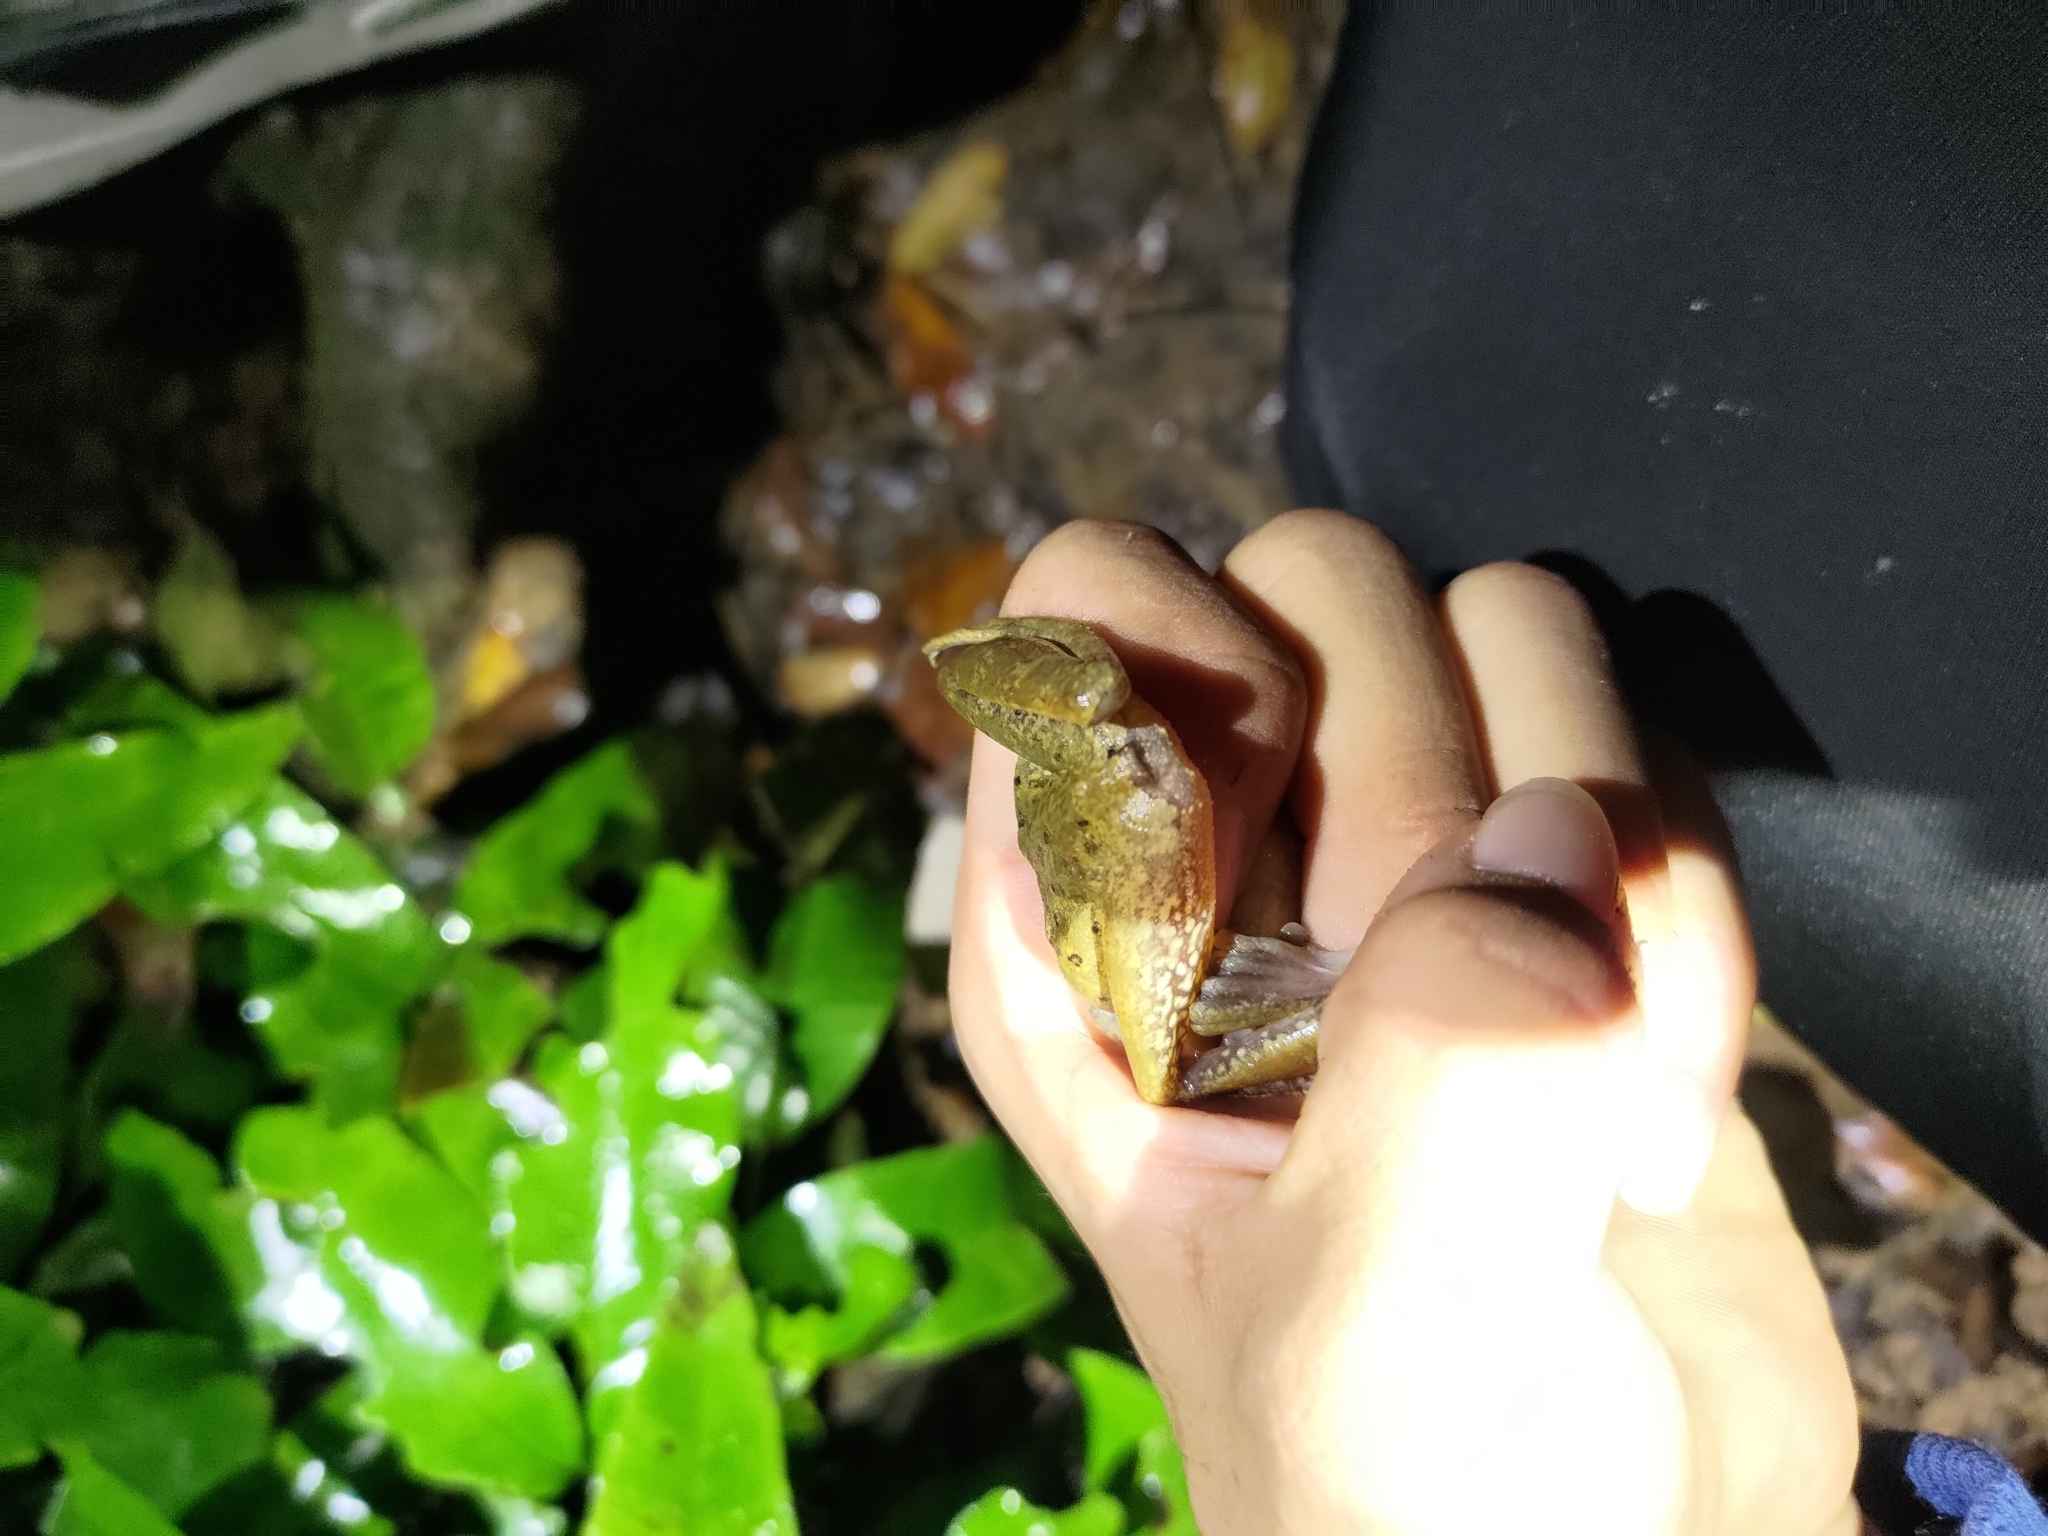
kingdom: Animalia
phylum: Chordata
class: Amphibia
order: Anura
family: Rhacophoridae
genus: Polypedates
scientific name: Polypedates megacephalus
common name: Hong kong whipping frog
